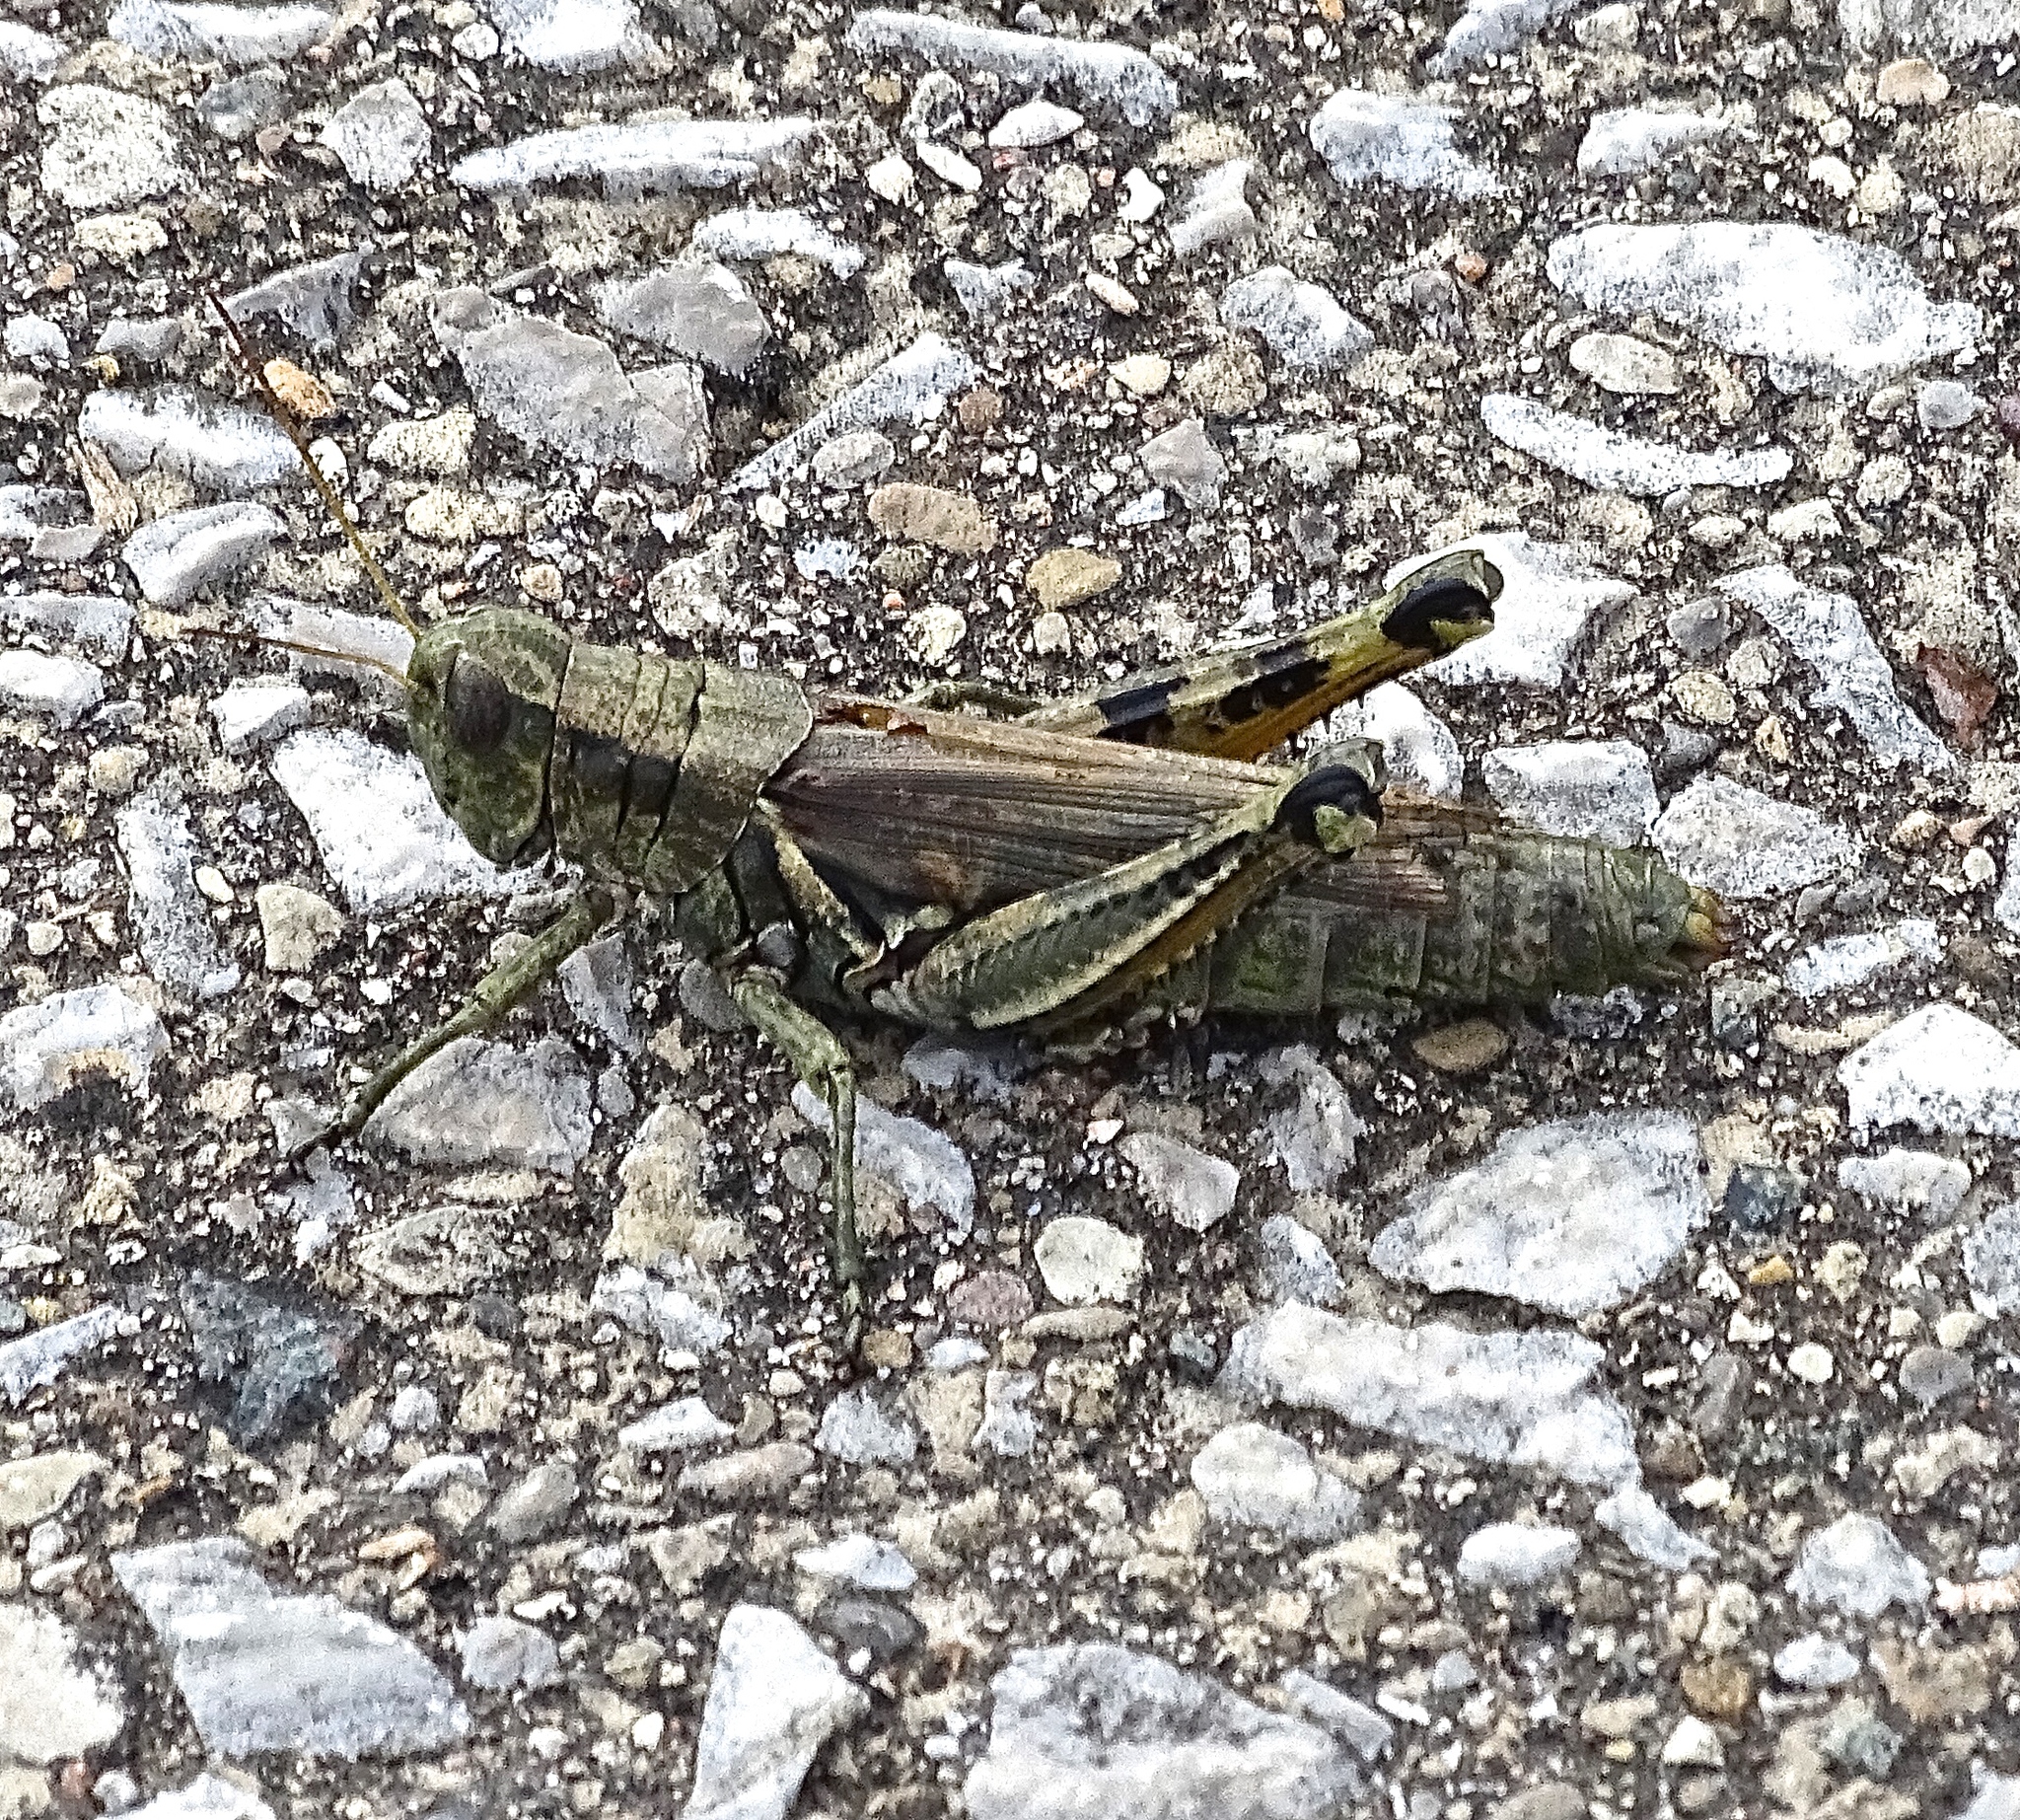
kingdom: Animalia
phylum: Arthropoda
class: Insecta
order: Orthoptera
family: Acrididae
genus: Melanoplus
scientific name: Melanoplus punctulatus
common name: Pine-tree spur-throat grasshopper
